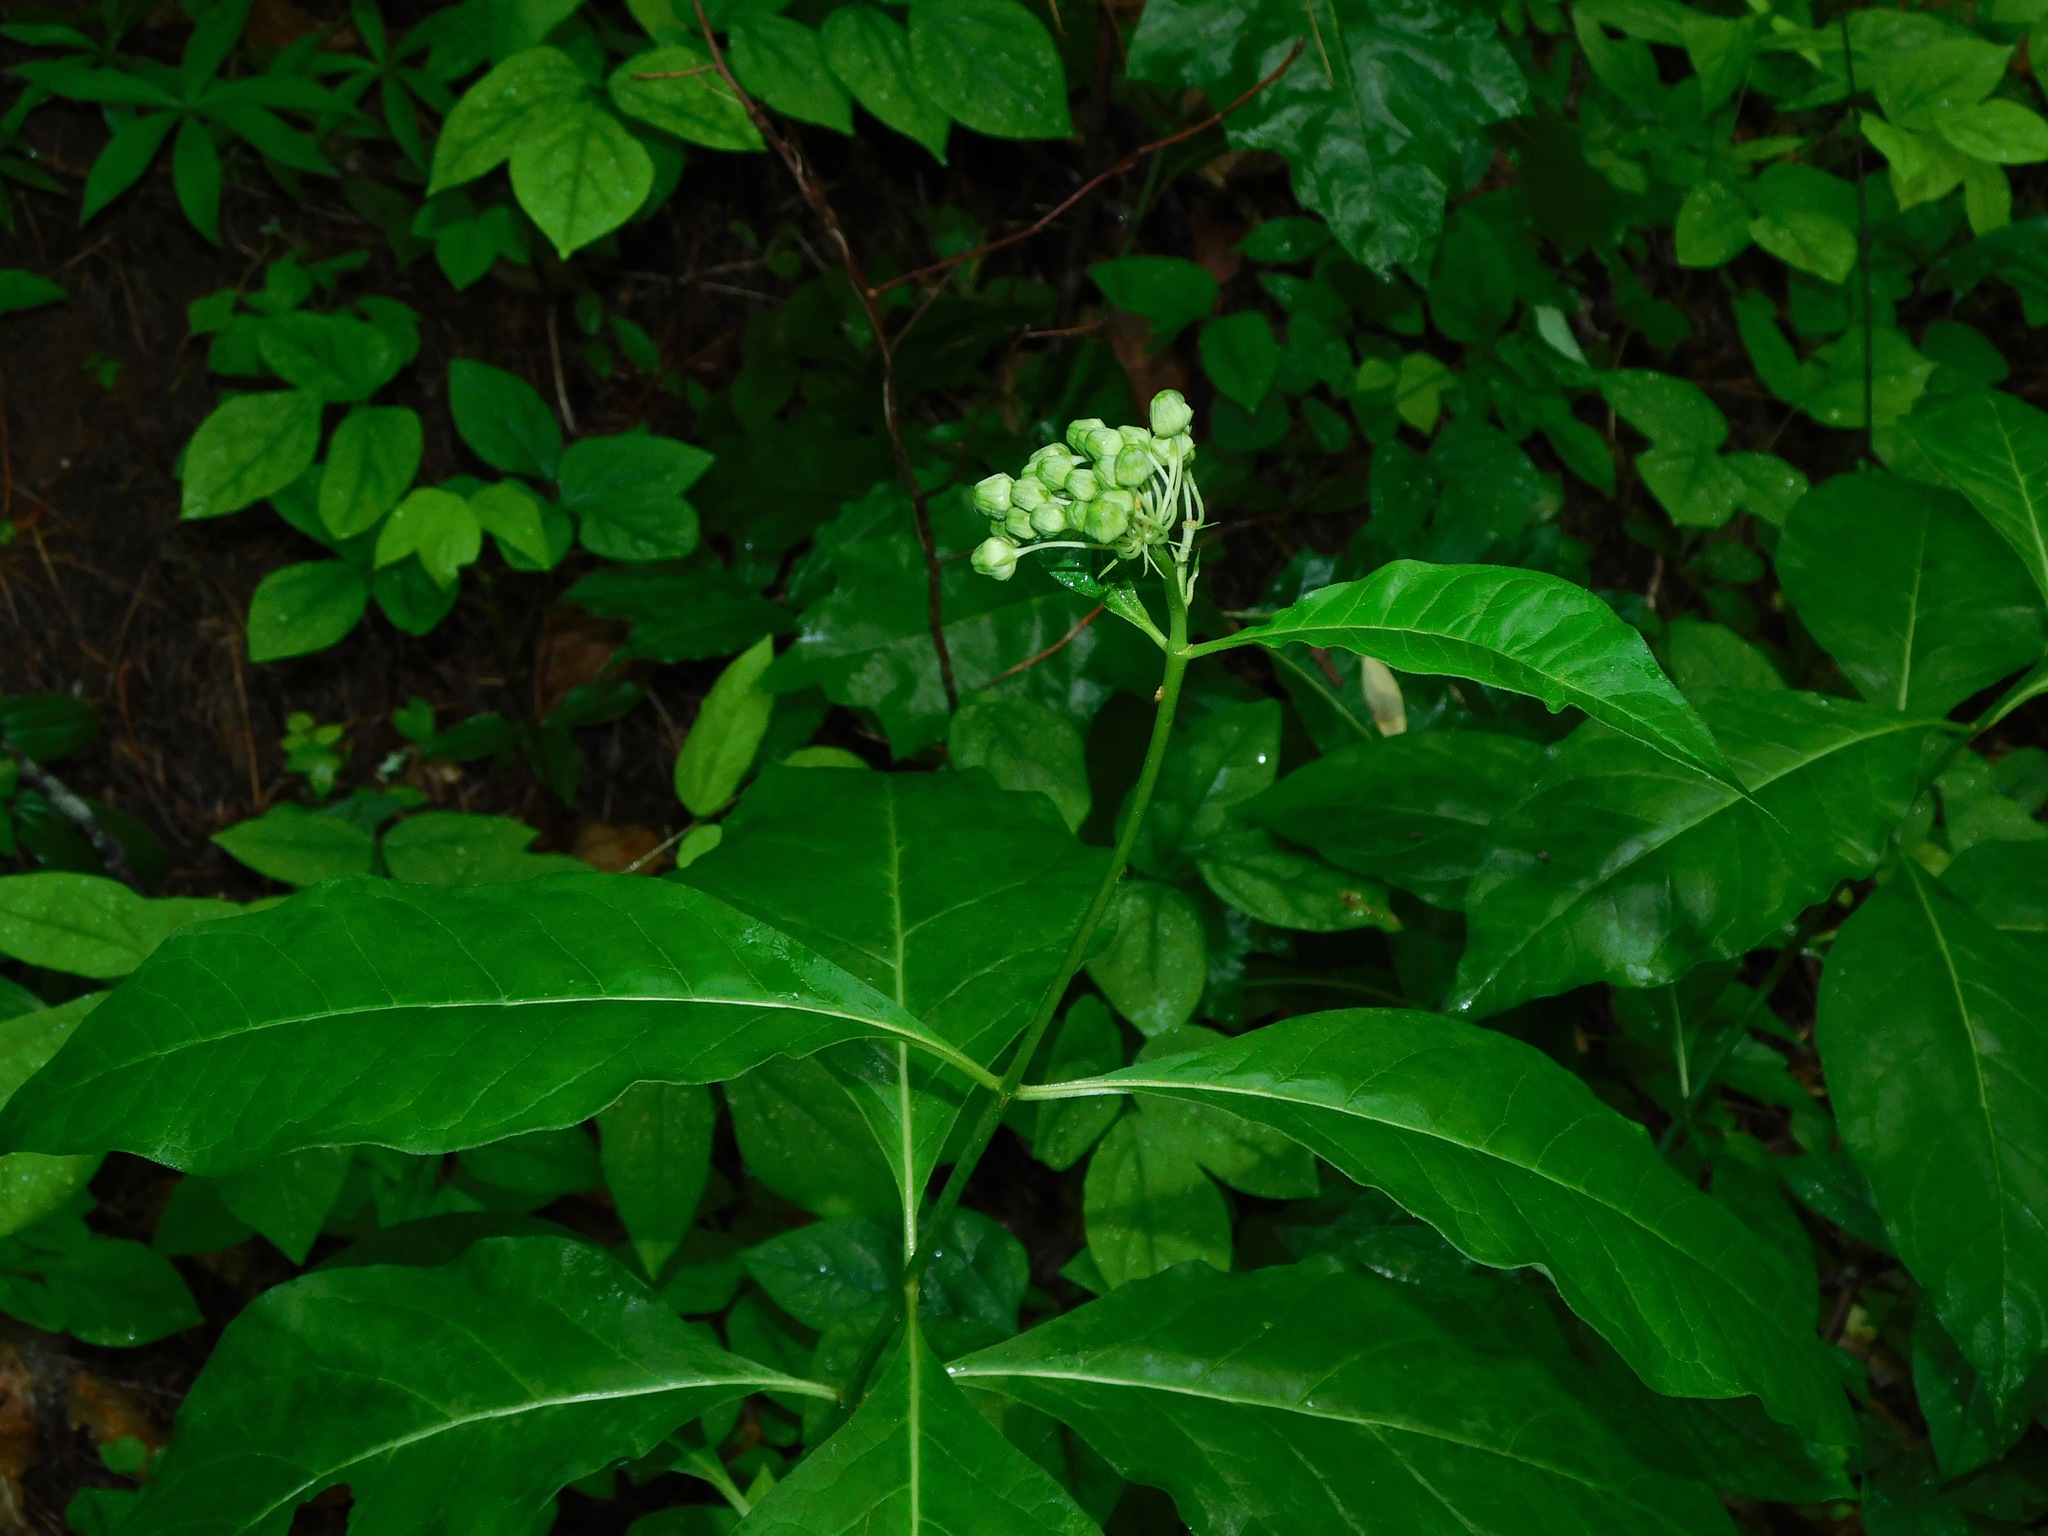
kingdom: Plantae
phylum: Tracheophyta
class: Magnoliopsida
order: Gentianales
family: Apocynaceae
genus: Asclepias
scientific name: Asclepias exaltata
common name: Poke milkweed
